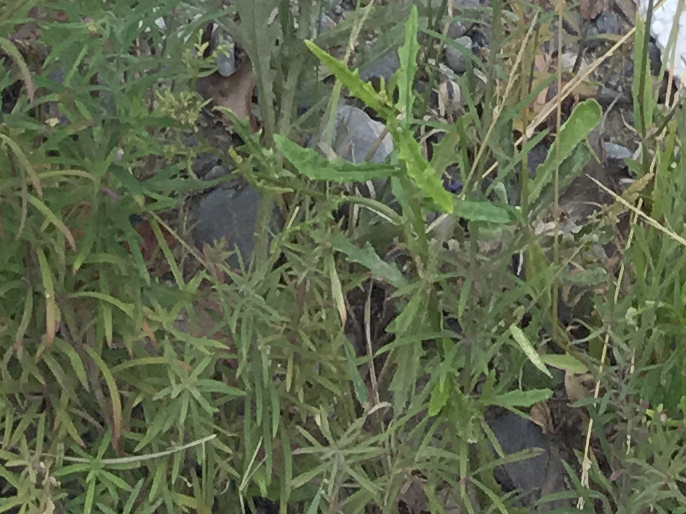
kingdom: Plantae
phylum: Tracheophyta
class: Magnoliopsida
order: Asterales
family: Asteraceae
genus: Senecio
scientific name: Senecio hispidulus
